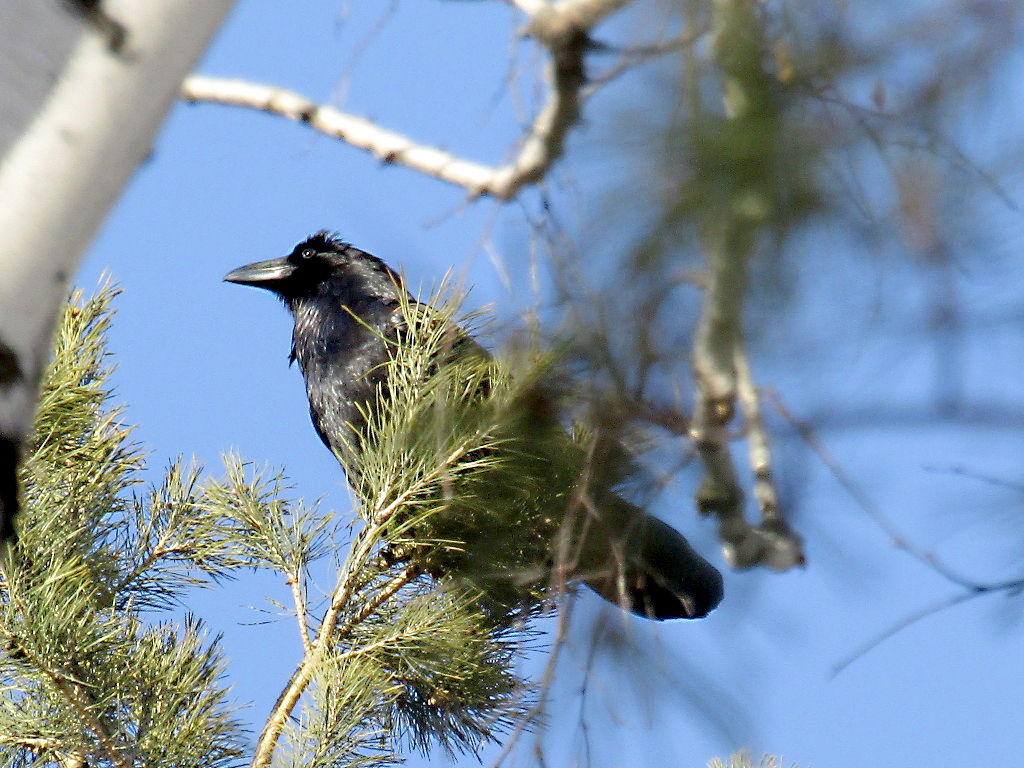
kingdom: Animalia
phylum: Chordata
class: Aves
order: Passeriformes
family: Corvidae
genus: Corvus
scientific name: Corvus corax
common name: Common raven
